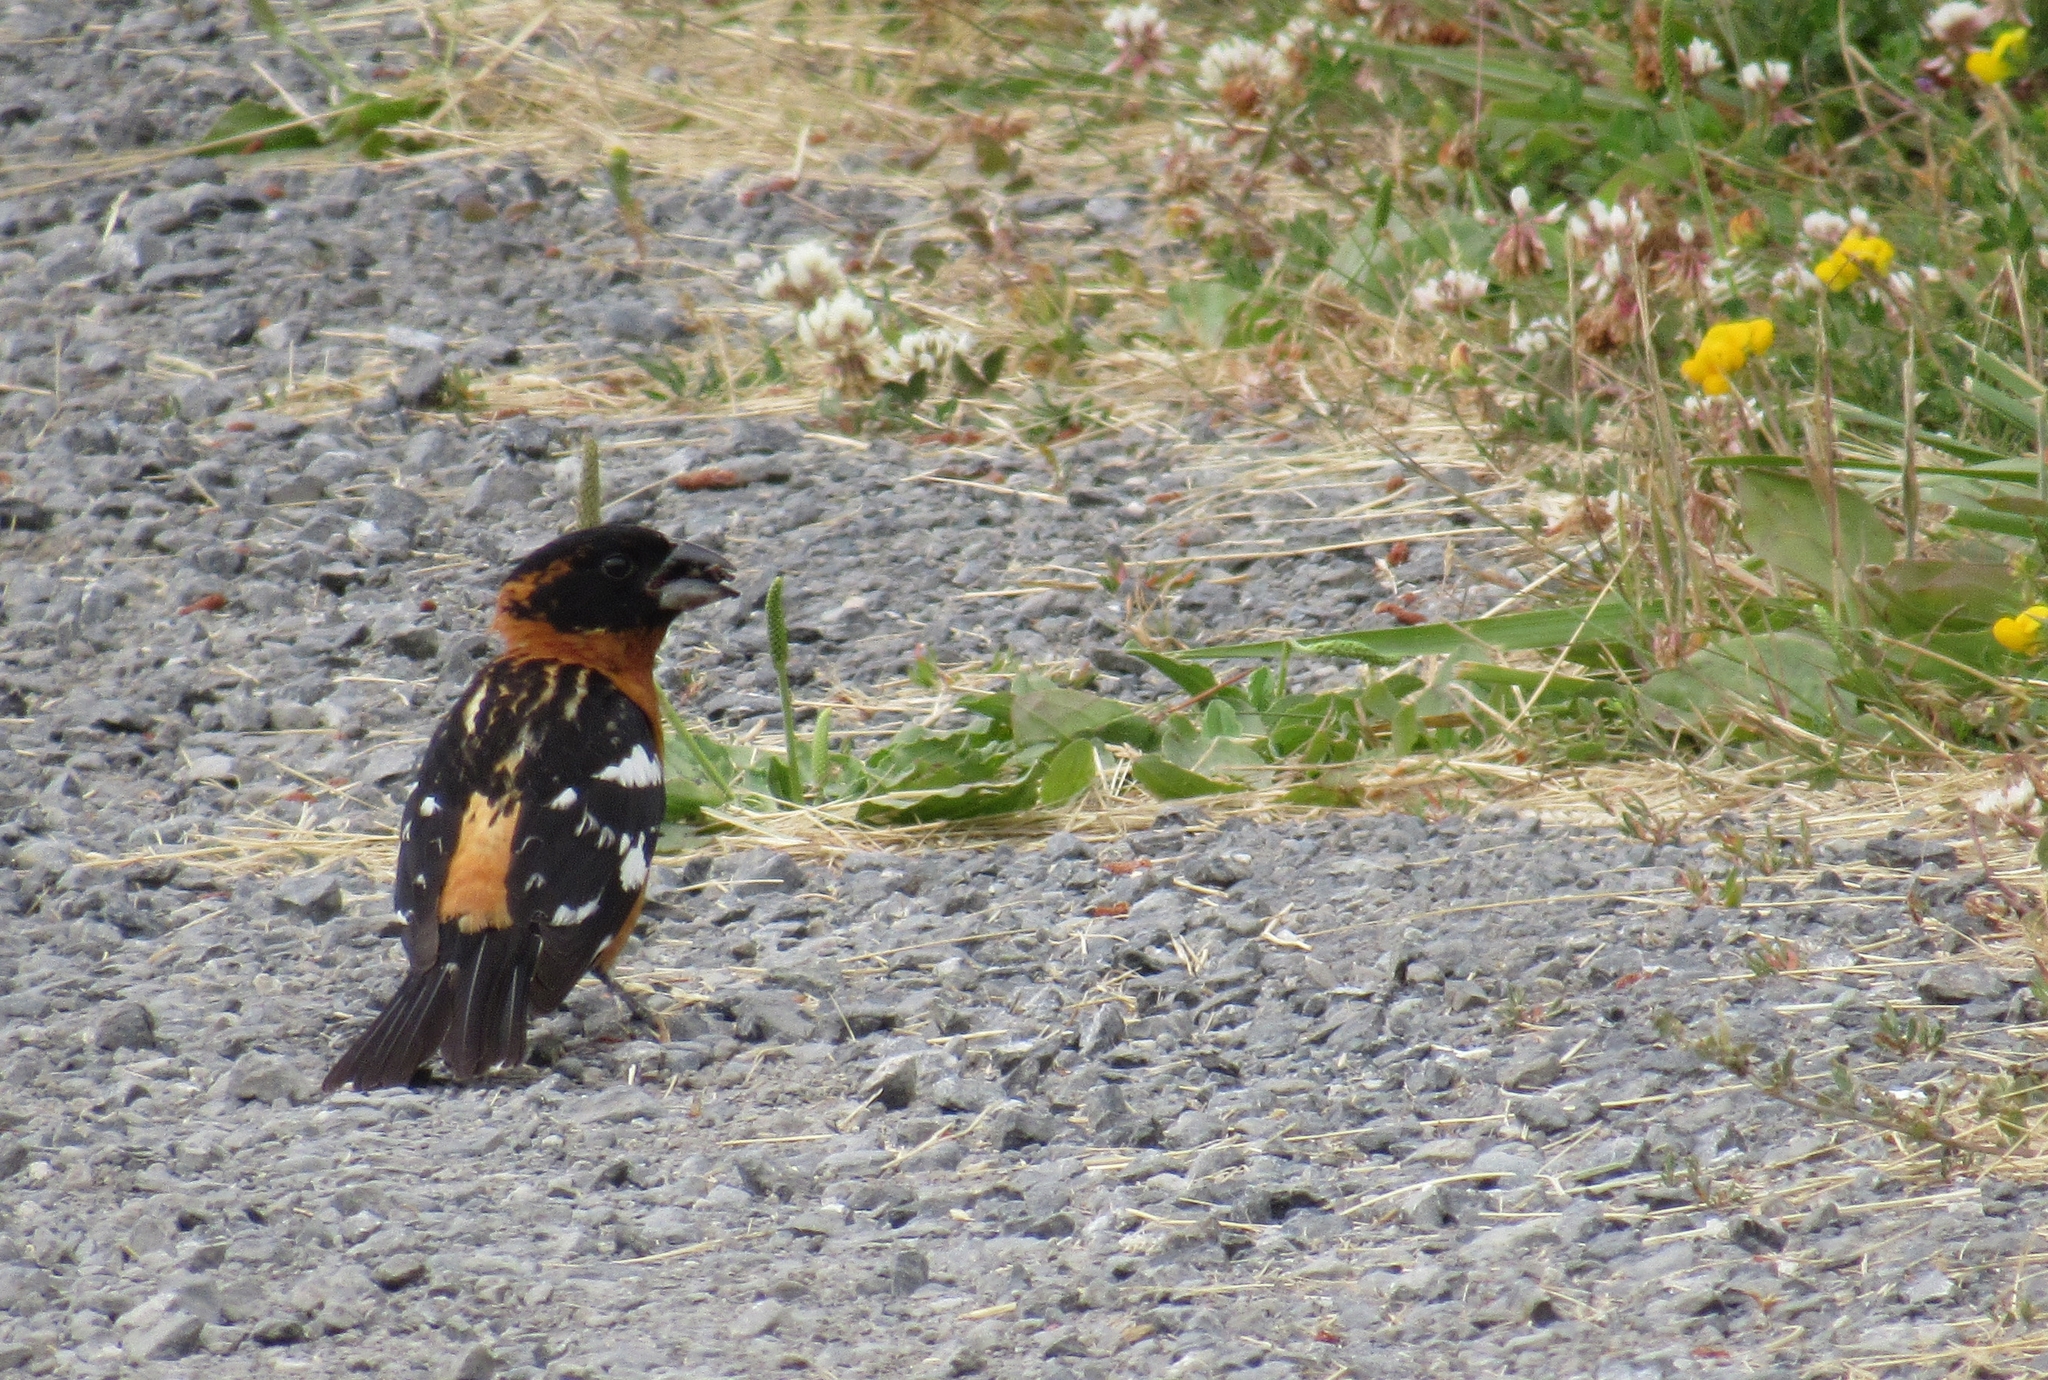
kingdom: Animalia
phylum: Chordata
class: Aves
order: Passeriformes
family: Cardinalidae
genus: Pheucticus
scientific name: Pheucticus melanocephalus
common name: Black-headed grosbeak
